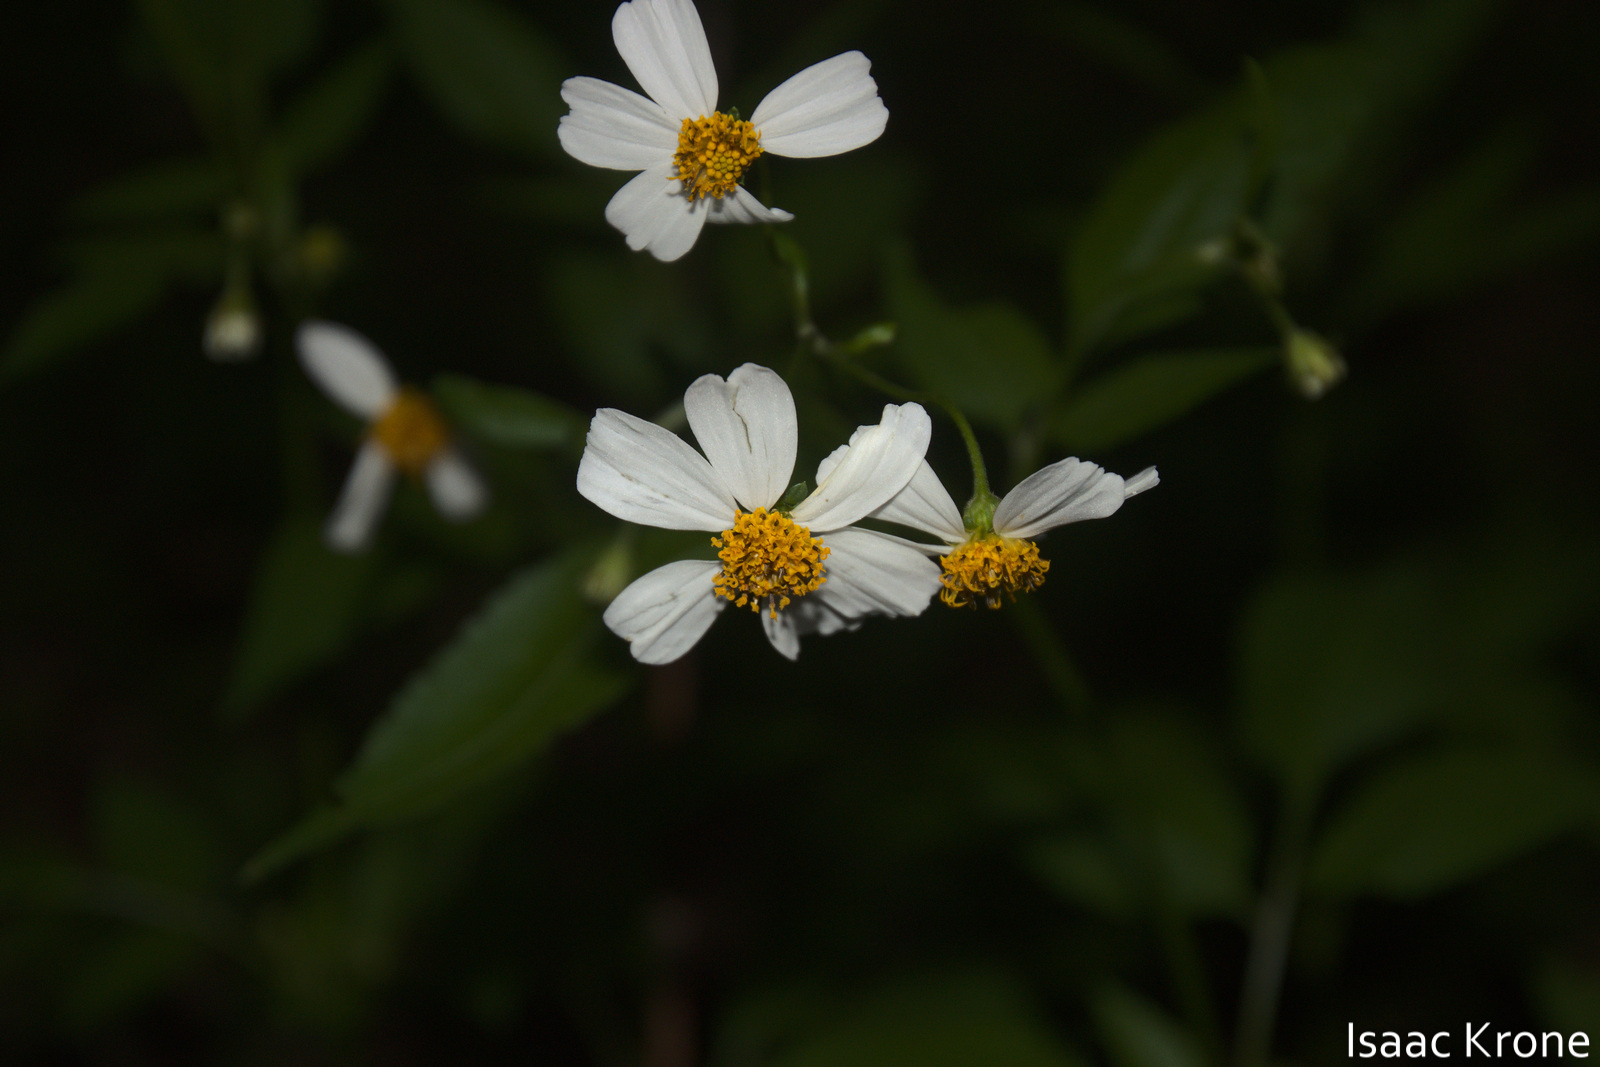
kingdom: Plantae
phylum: Tracheophyta
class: Magnoliopsida
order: Asterales
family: Asteraceae
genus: Bidens
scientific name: Bidens alba
